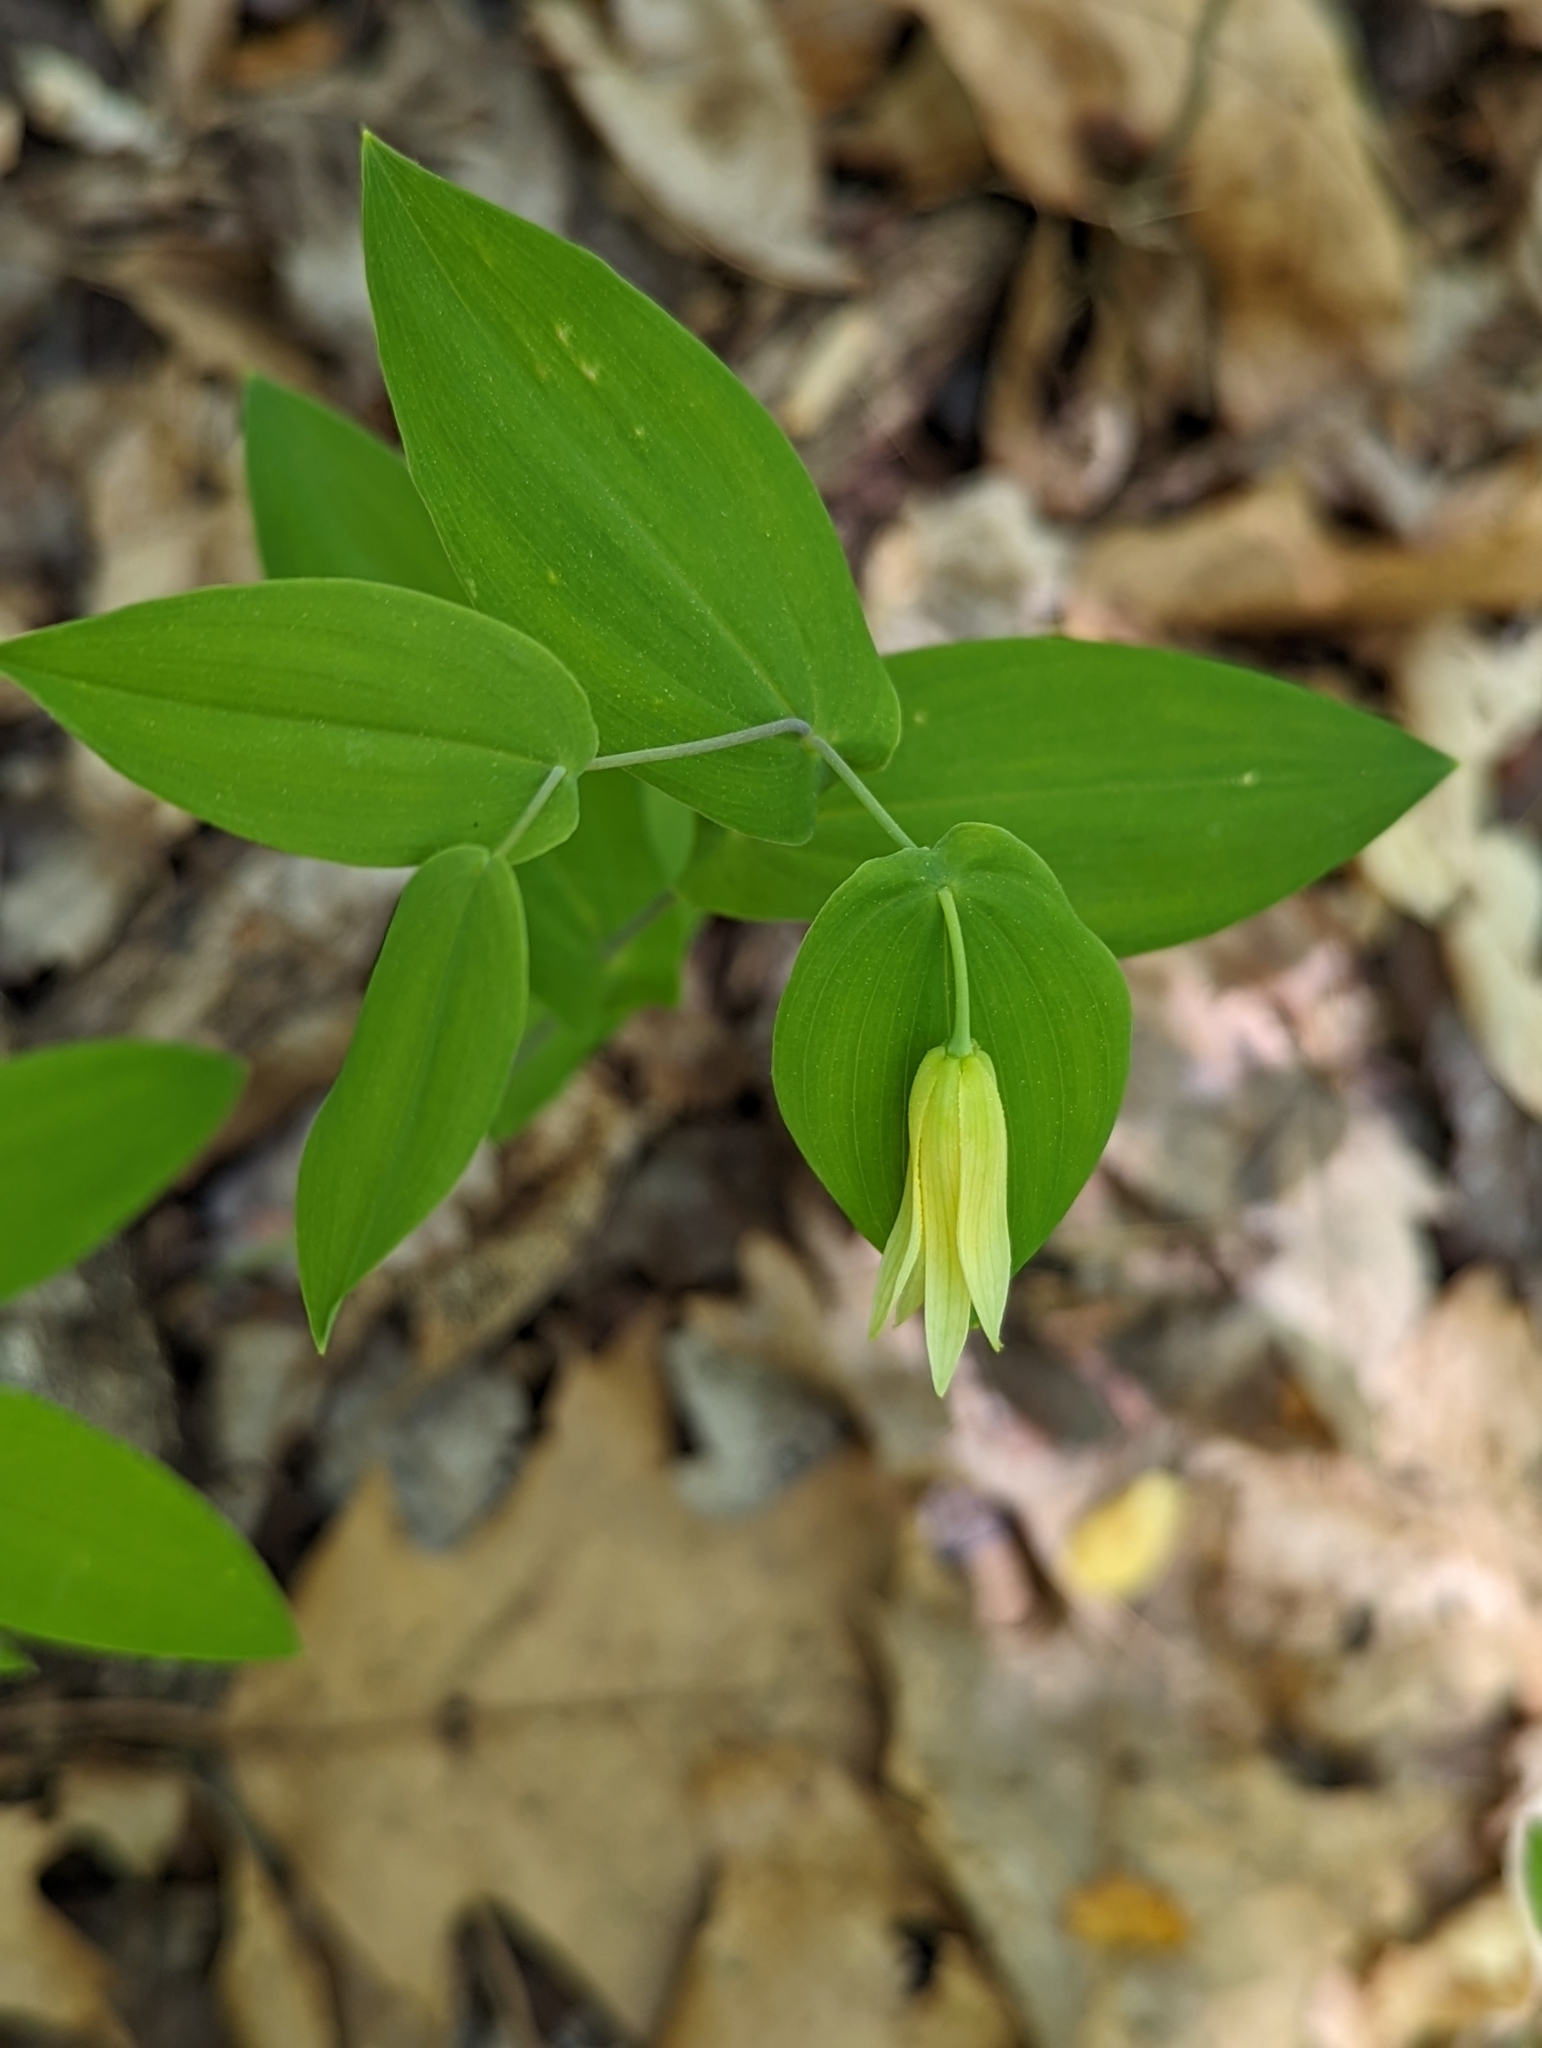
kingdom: Plantae
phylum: Tracheophyta
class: Liliopsida
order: Liliales
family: Colchicaceae
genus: Uvularia
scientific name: Uvularia perfoliata
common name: Perfoliate bellwort
